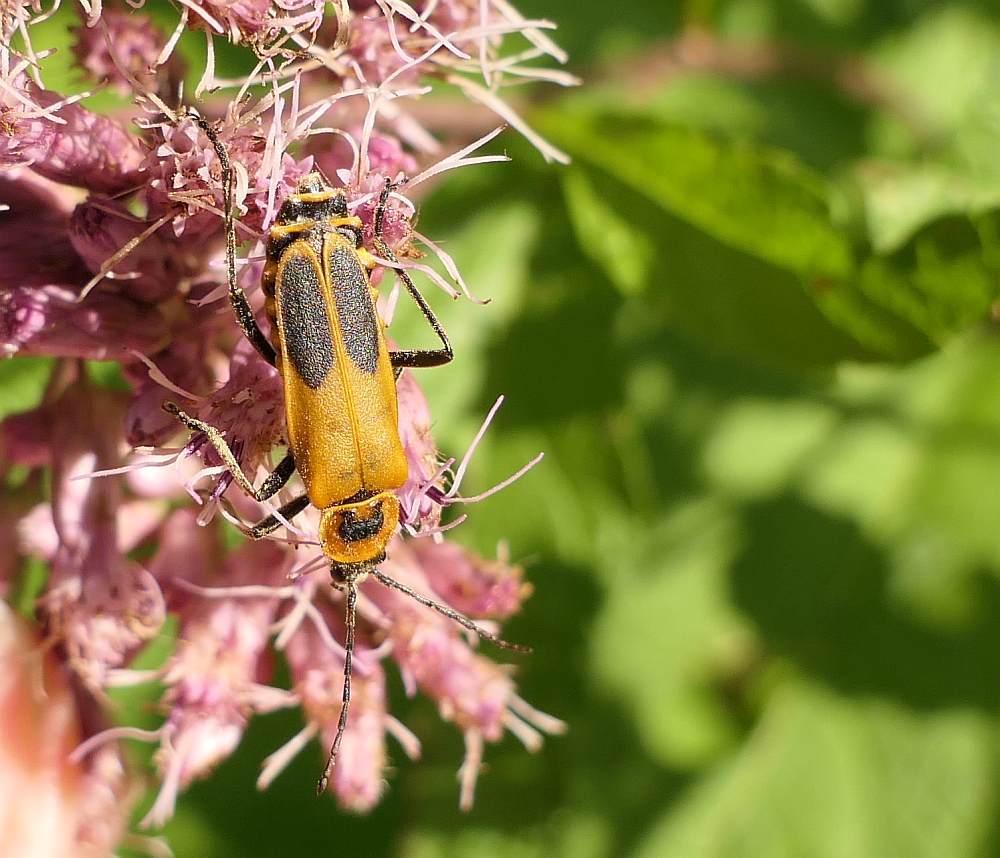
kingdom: Animalia
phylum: Arthropoda
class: Insecta
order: Coleoptera
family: Cantharidae
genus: Chauliognathus
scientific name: Chauliognathus pensylvanicus
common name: Goldenrod soldier beetle
